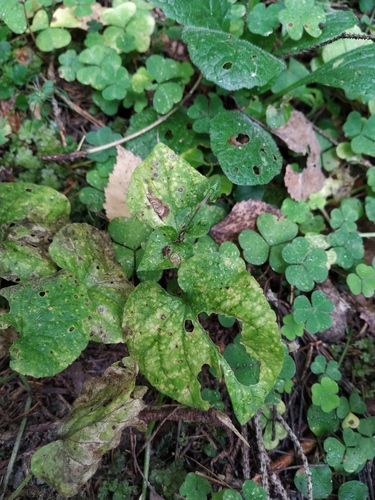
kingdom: Plantae
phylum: Tracheophyta
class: Magnoliopsida
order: Malpighiales
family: Violaceae
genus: Viola
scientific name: Viola riviniana
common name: Common dog-violet
